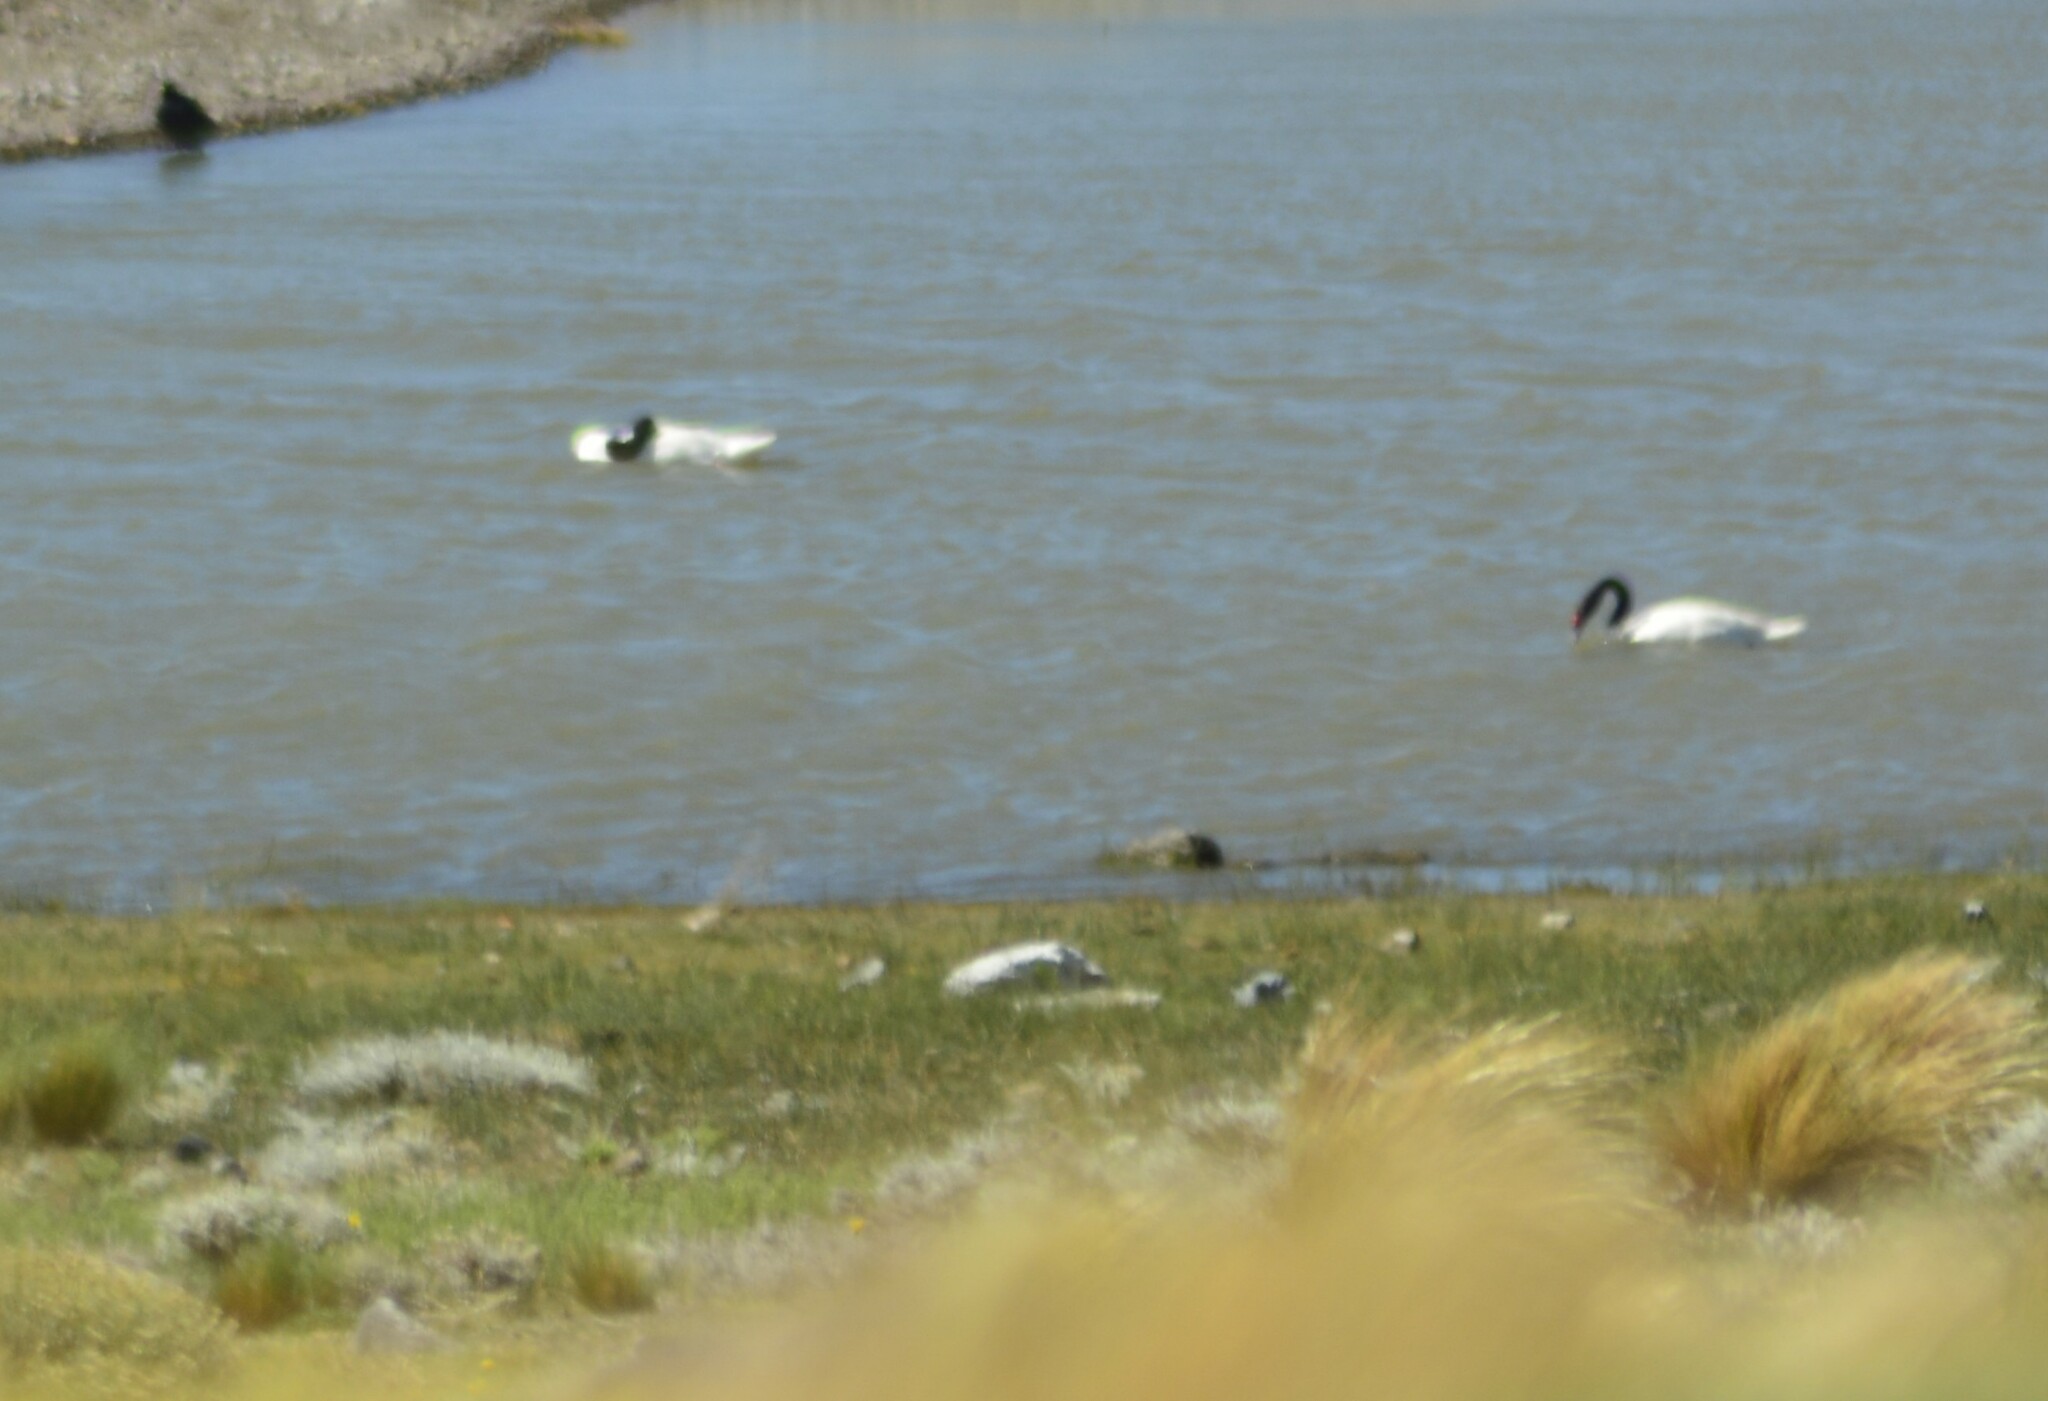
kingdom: Animalia
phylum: Chordata
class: Aves
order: Anseriformes
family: Anatidae
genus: Cygnus
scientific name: Cygnus melancoryphus
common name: Black-necked swan
